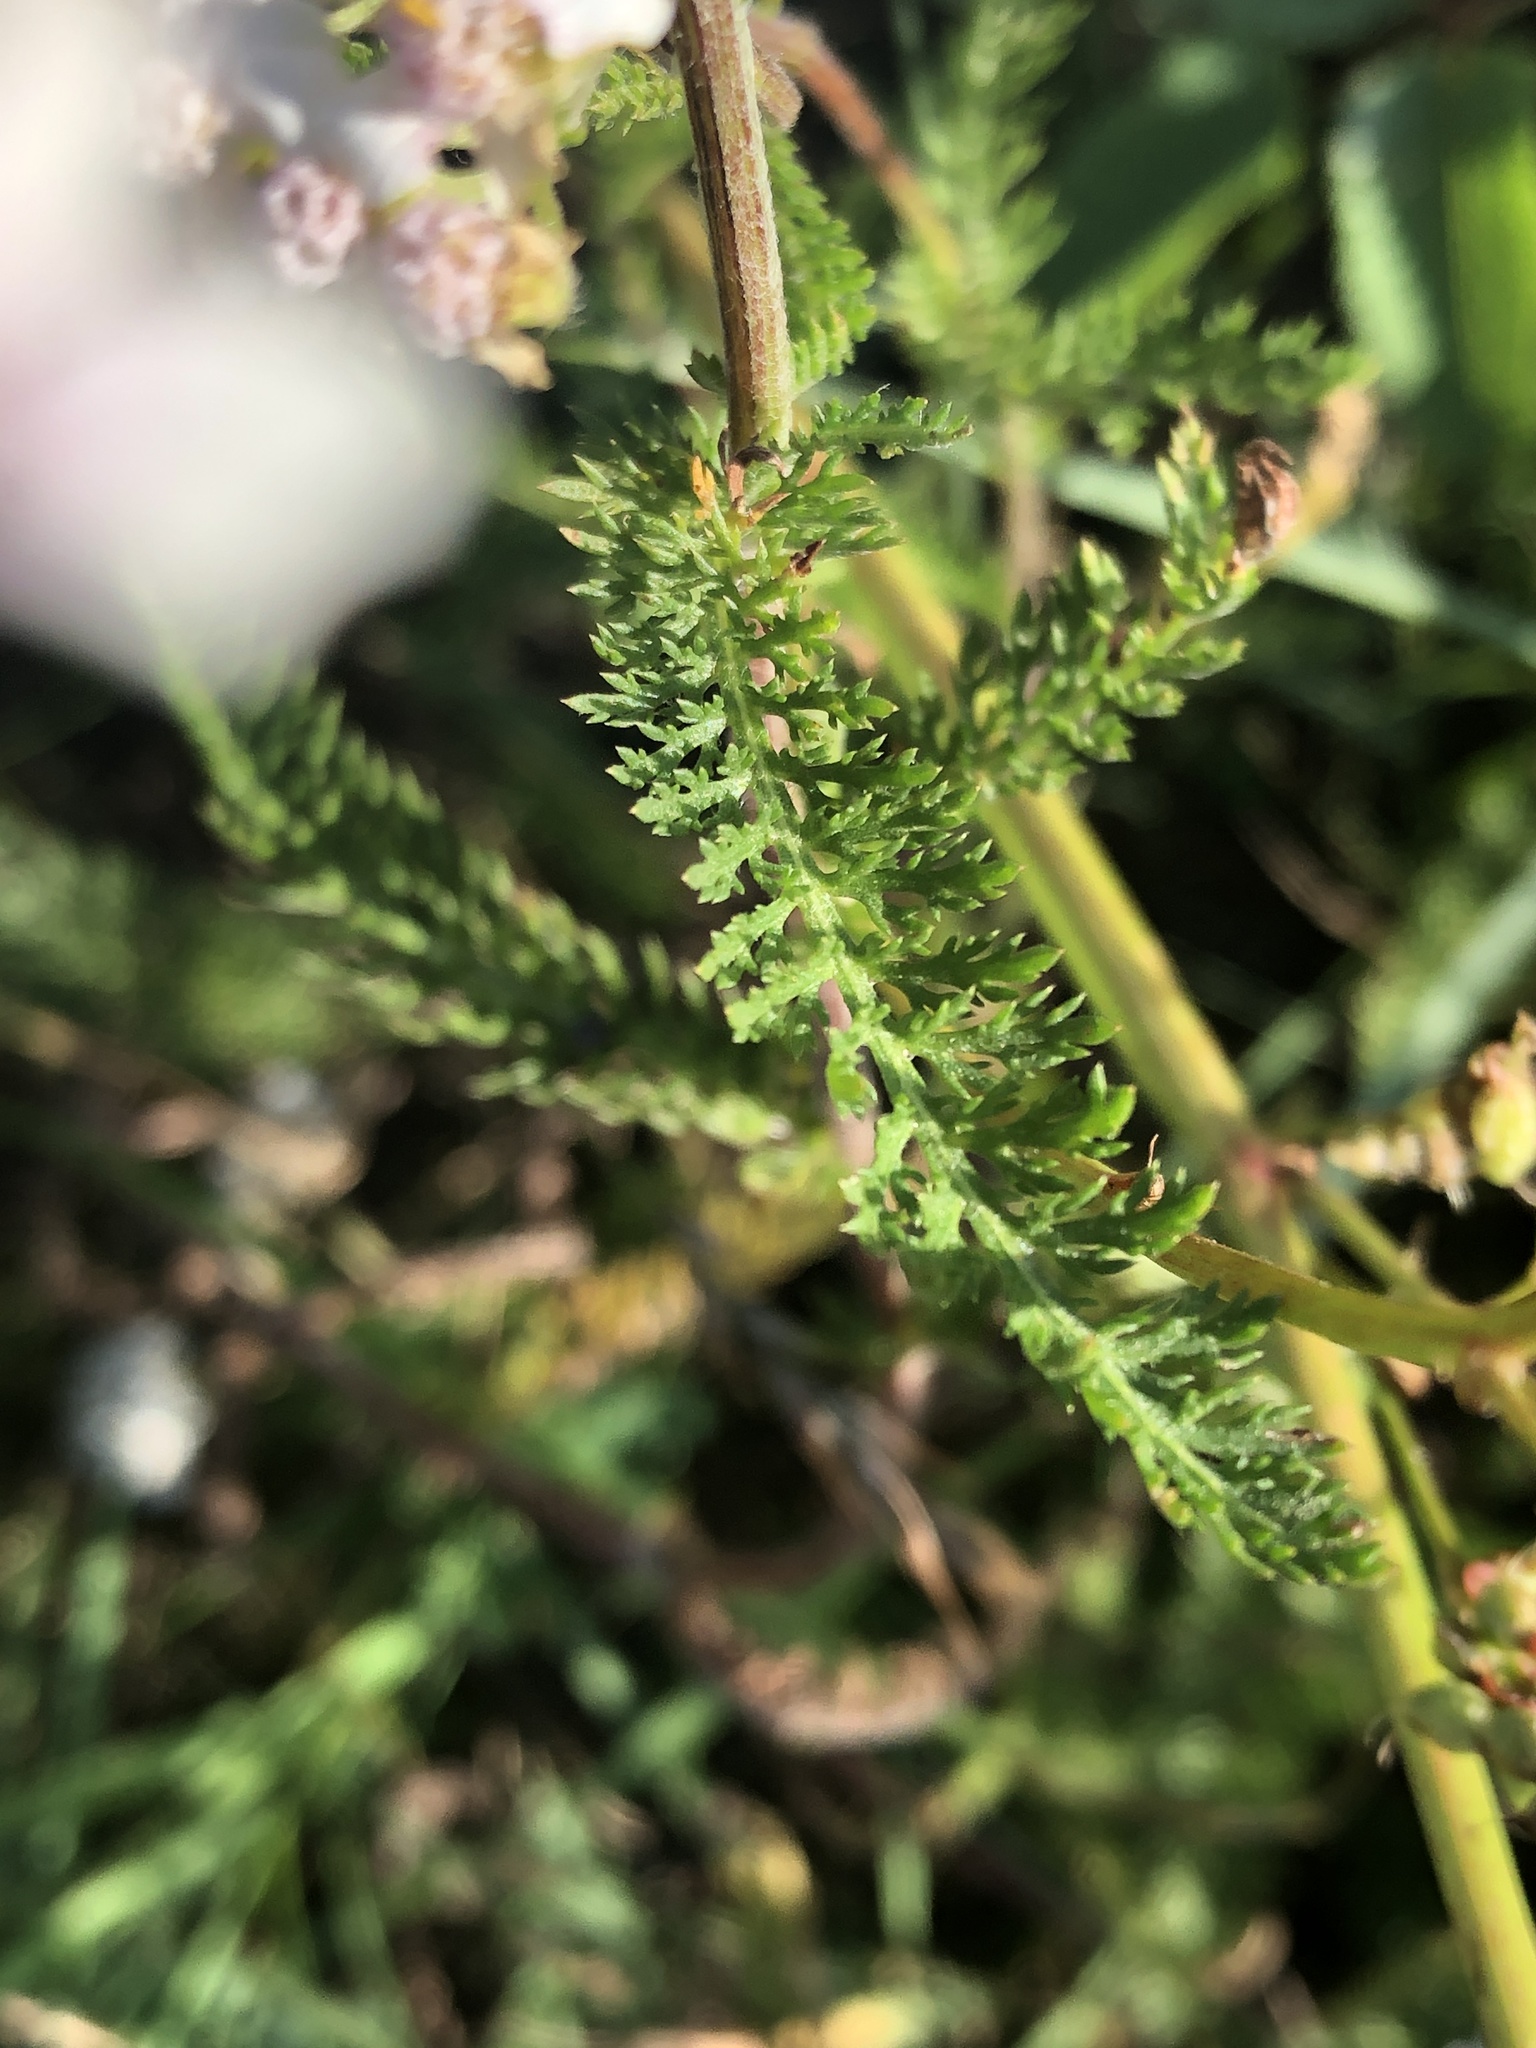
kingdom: Plantae
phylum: Tracheophyta
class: Magnoliopsida
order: Asterales
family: Asteraceae
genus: Achillea
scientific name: Achillea millefolium
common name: Yarrow
